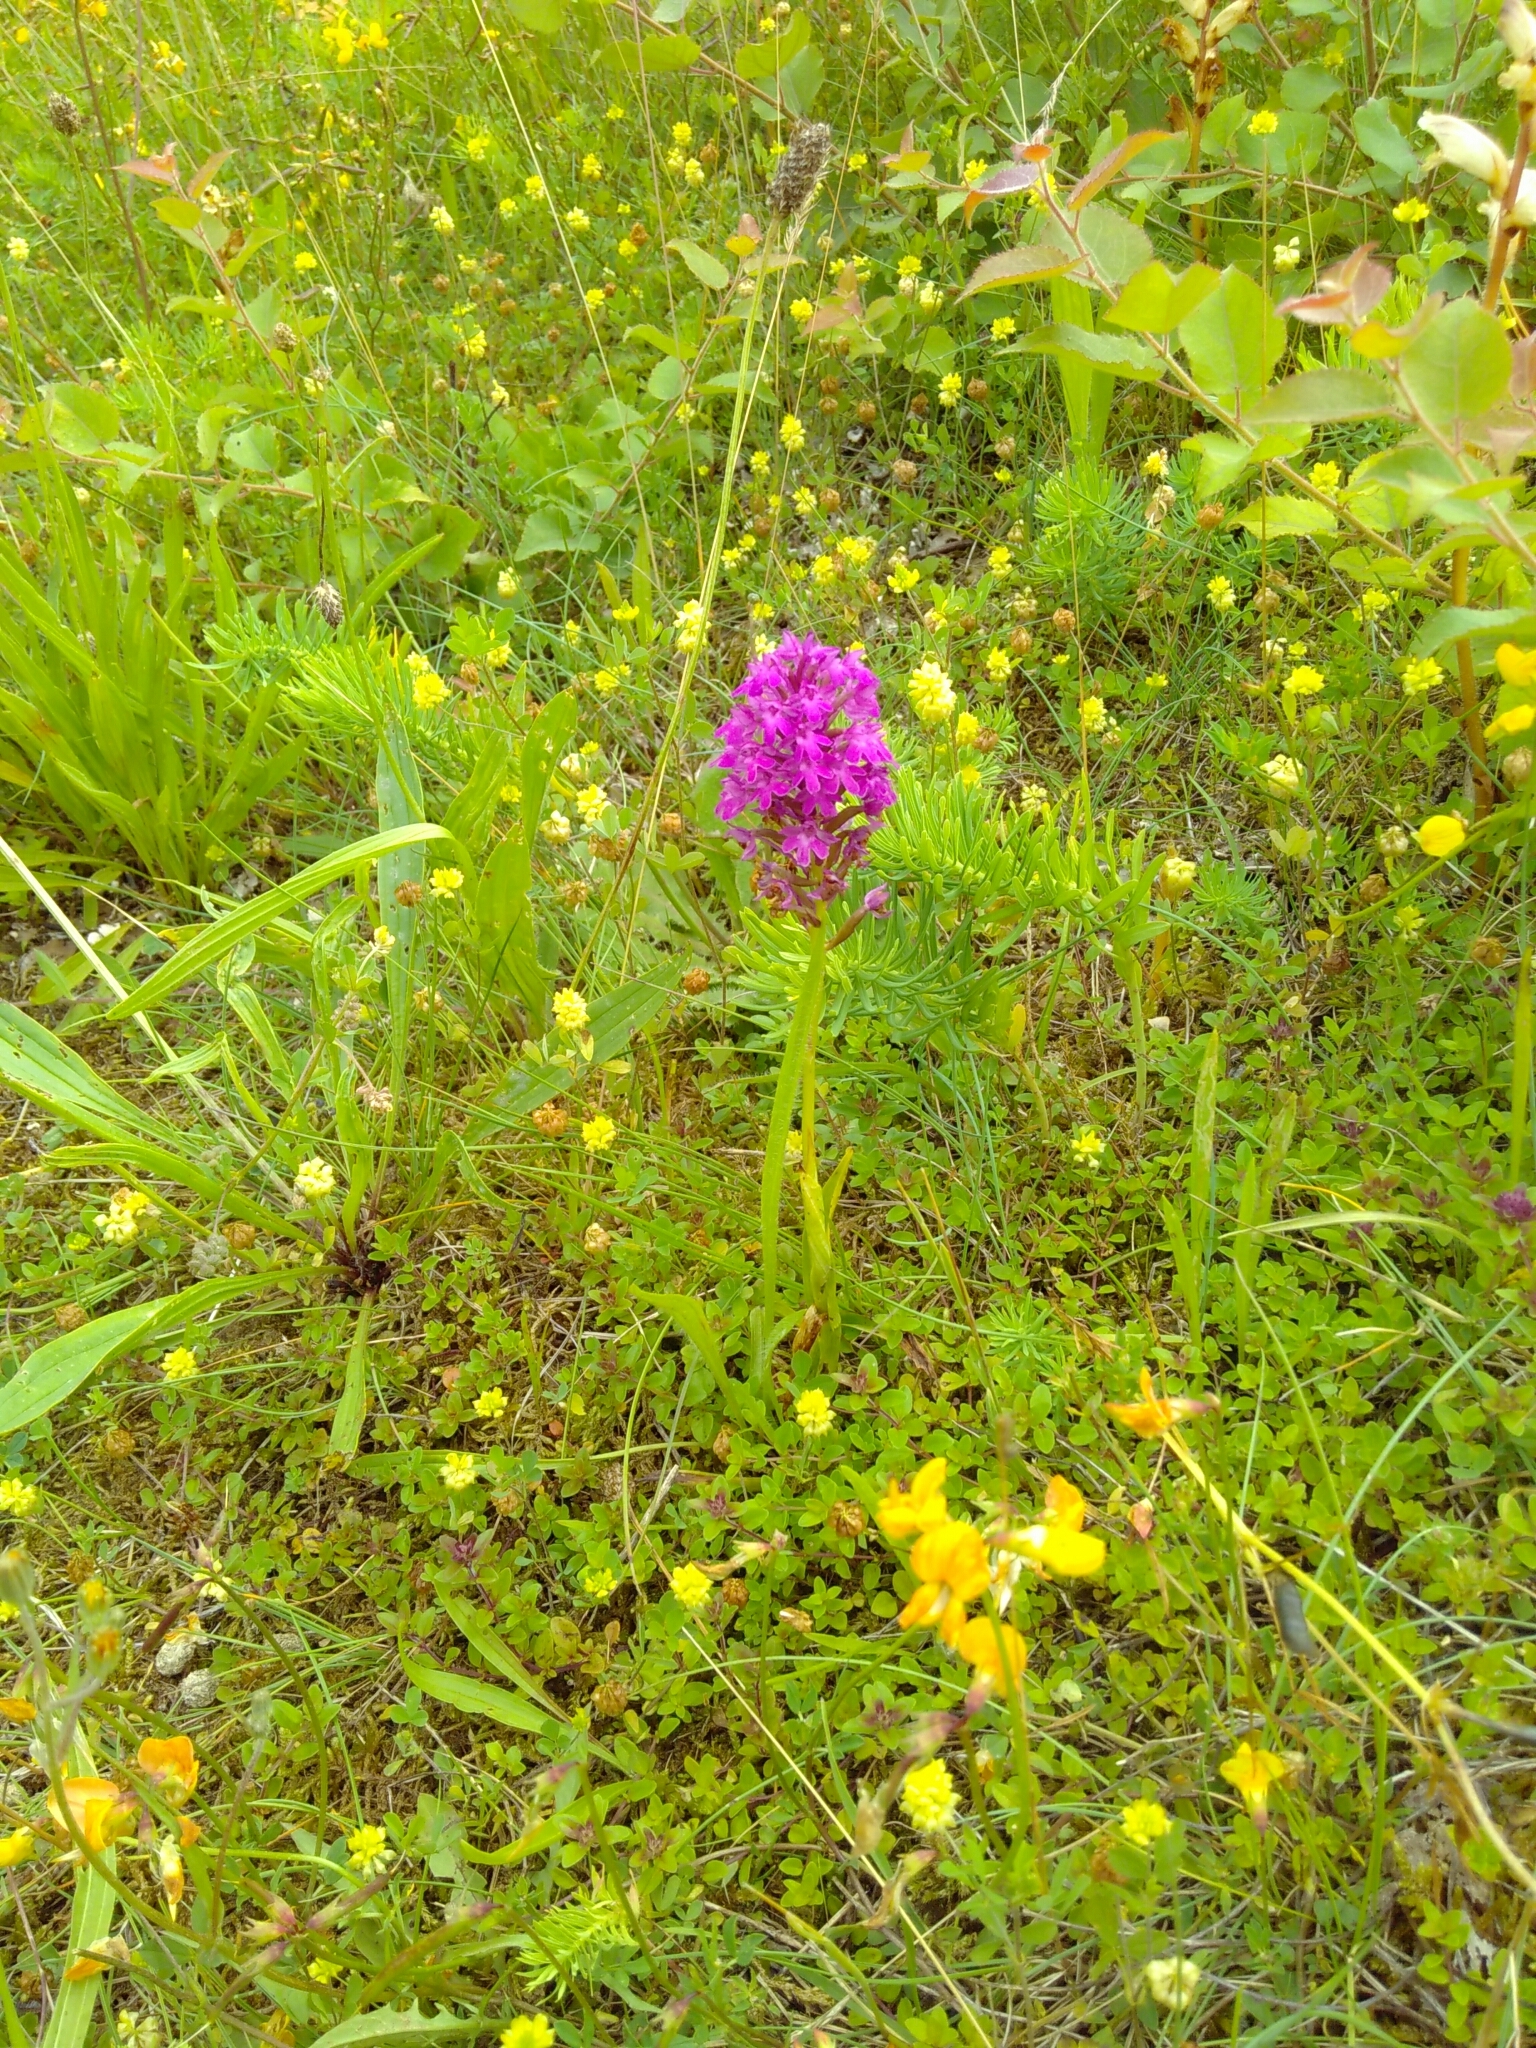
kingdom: Plantae
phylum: Tracheophyta
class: Liliopsida
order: Asparagales
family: Orchidaceae
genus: Anacamptis
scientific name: Anacamptis pyramidalis
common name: Pyramidal orchid
